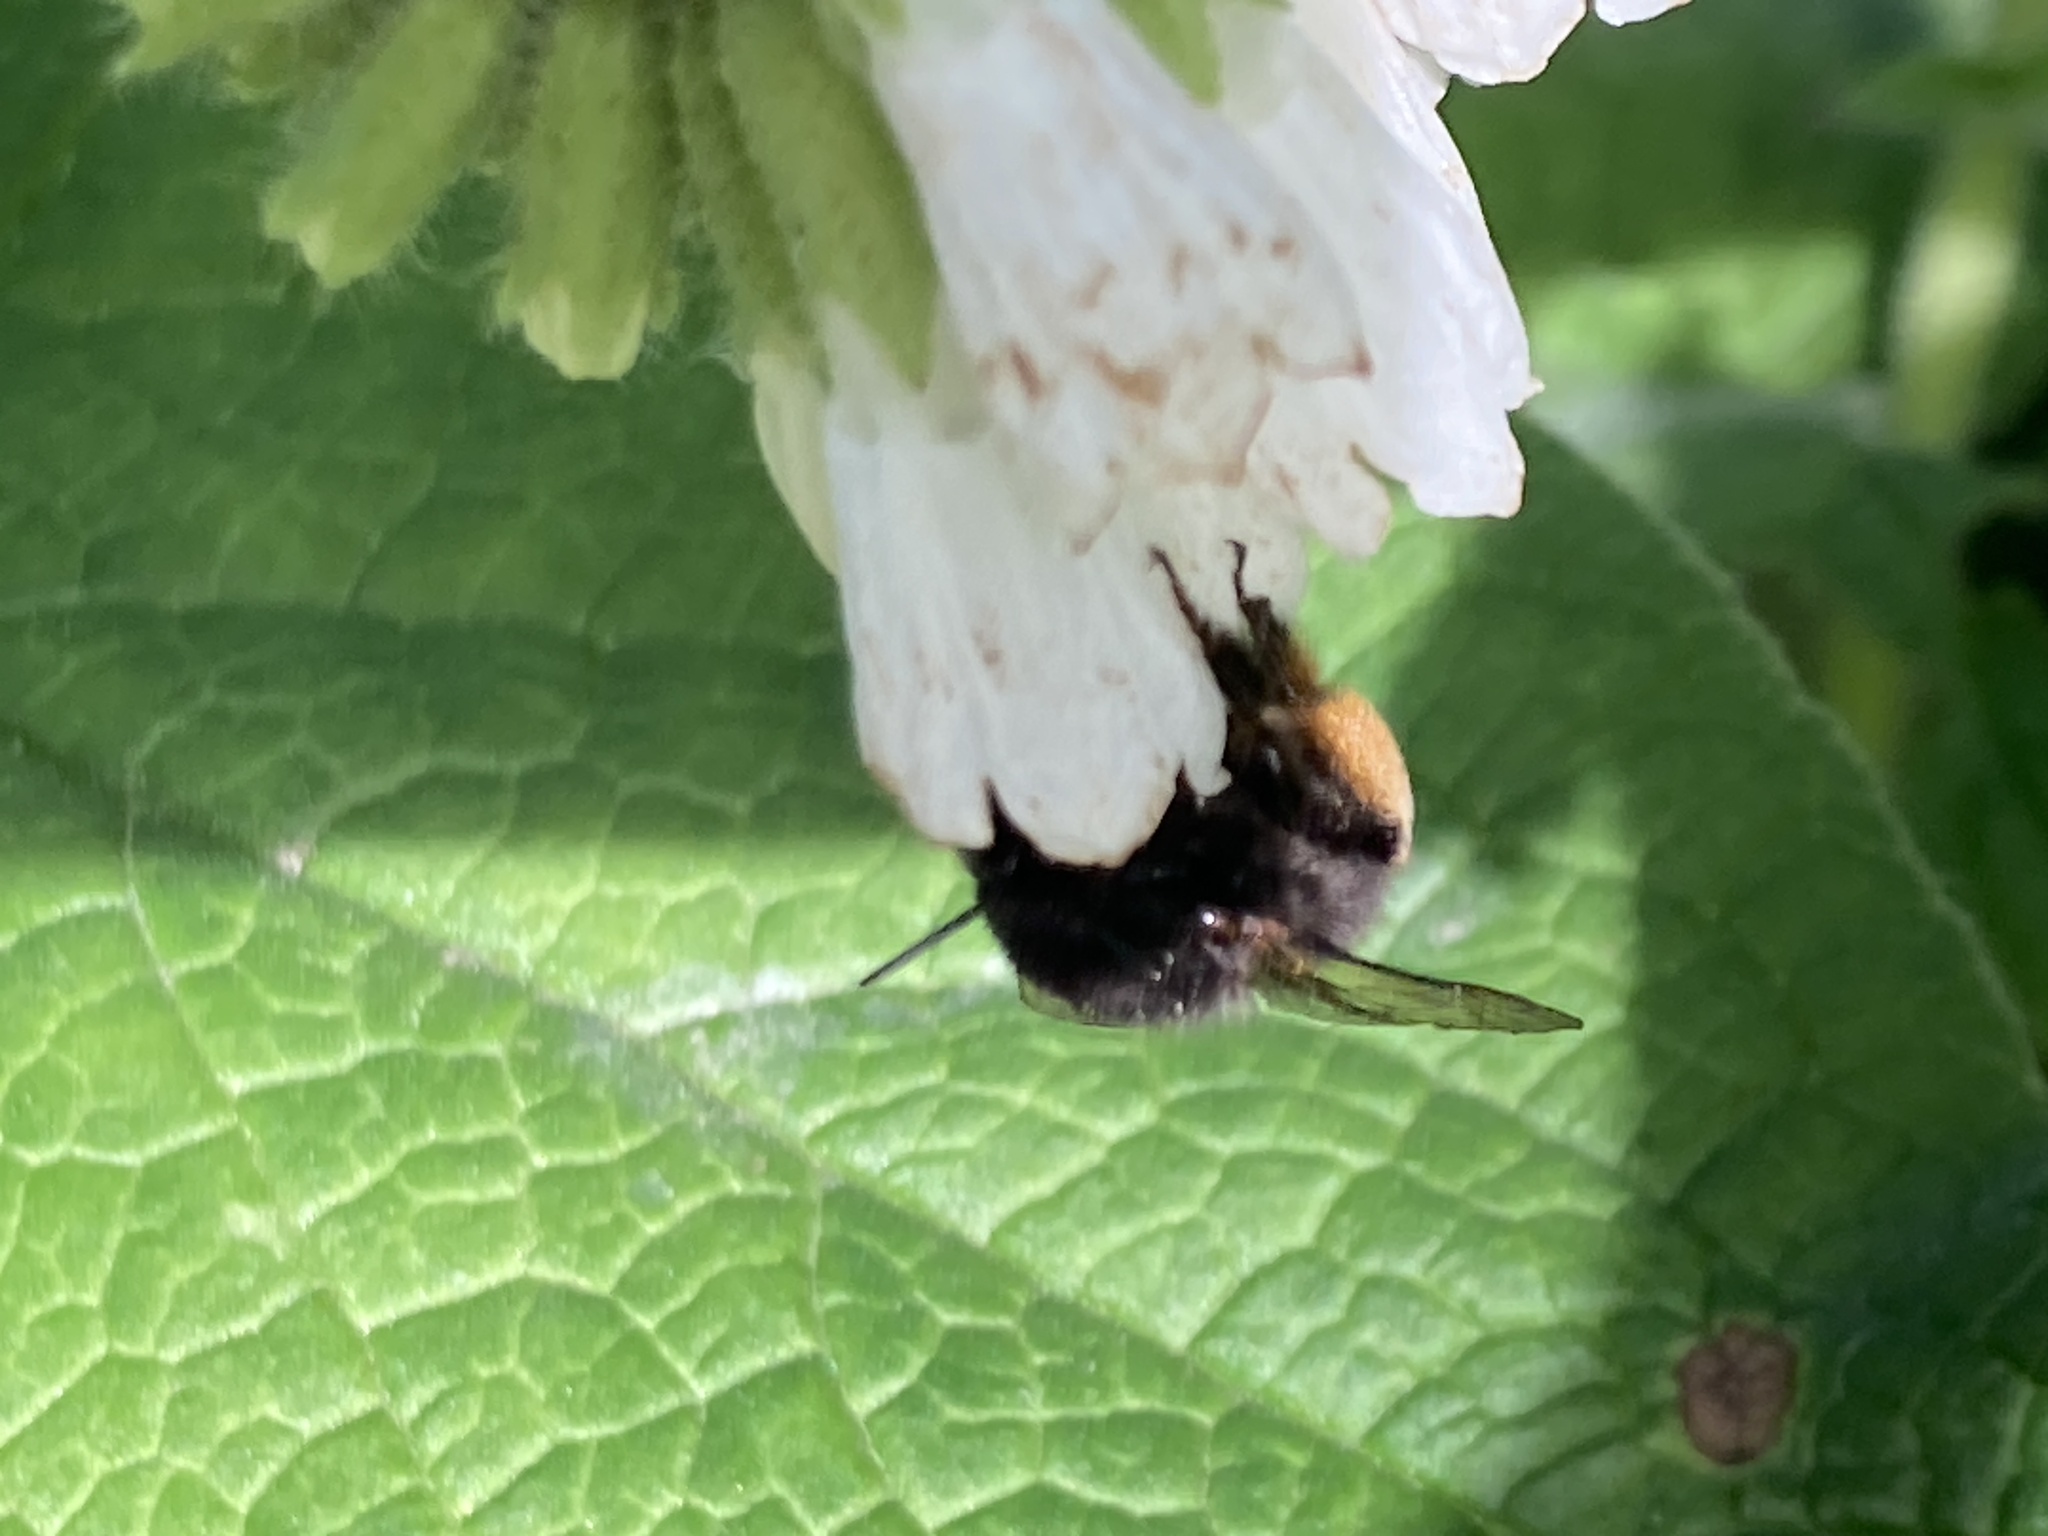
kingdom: Animalia
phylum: Arthropoda
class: Insecta
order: Hymenoptera
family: Apidae
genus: Anthophora
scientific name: Anthophora plumipes
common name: Hairy-footed flower bee
